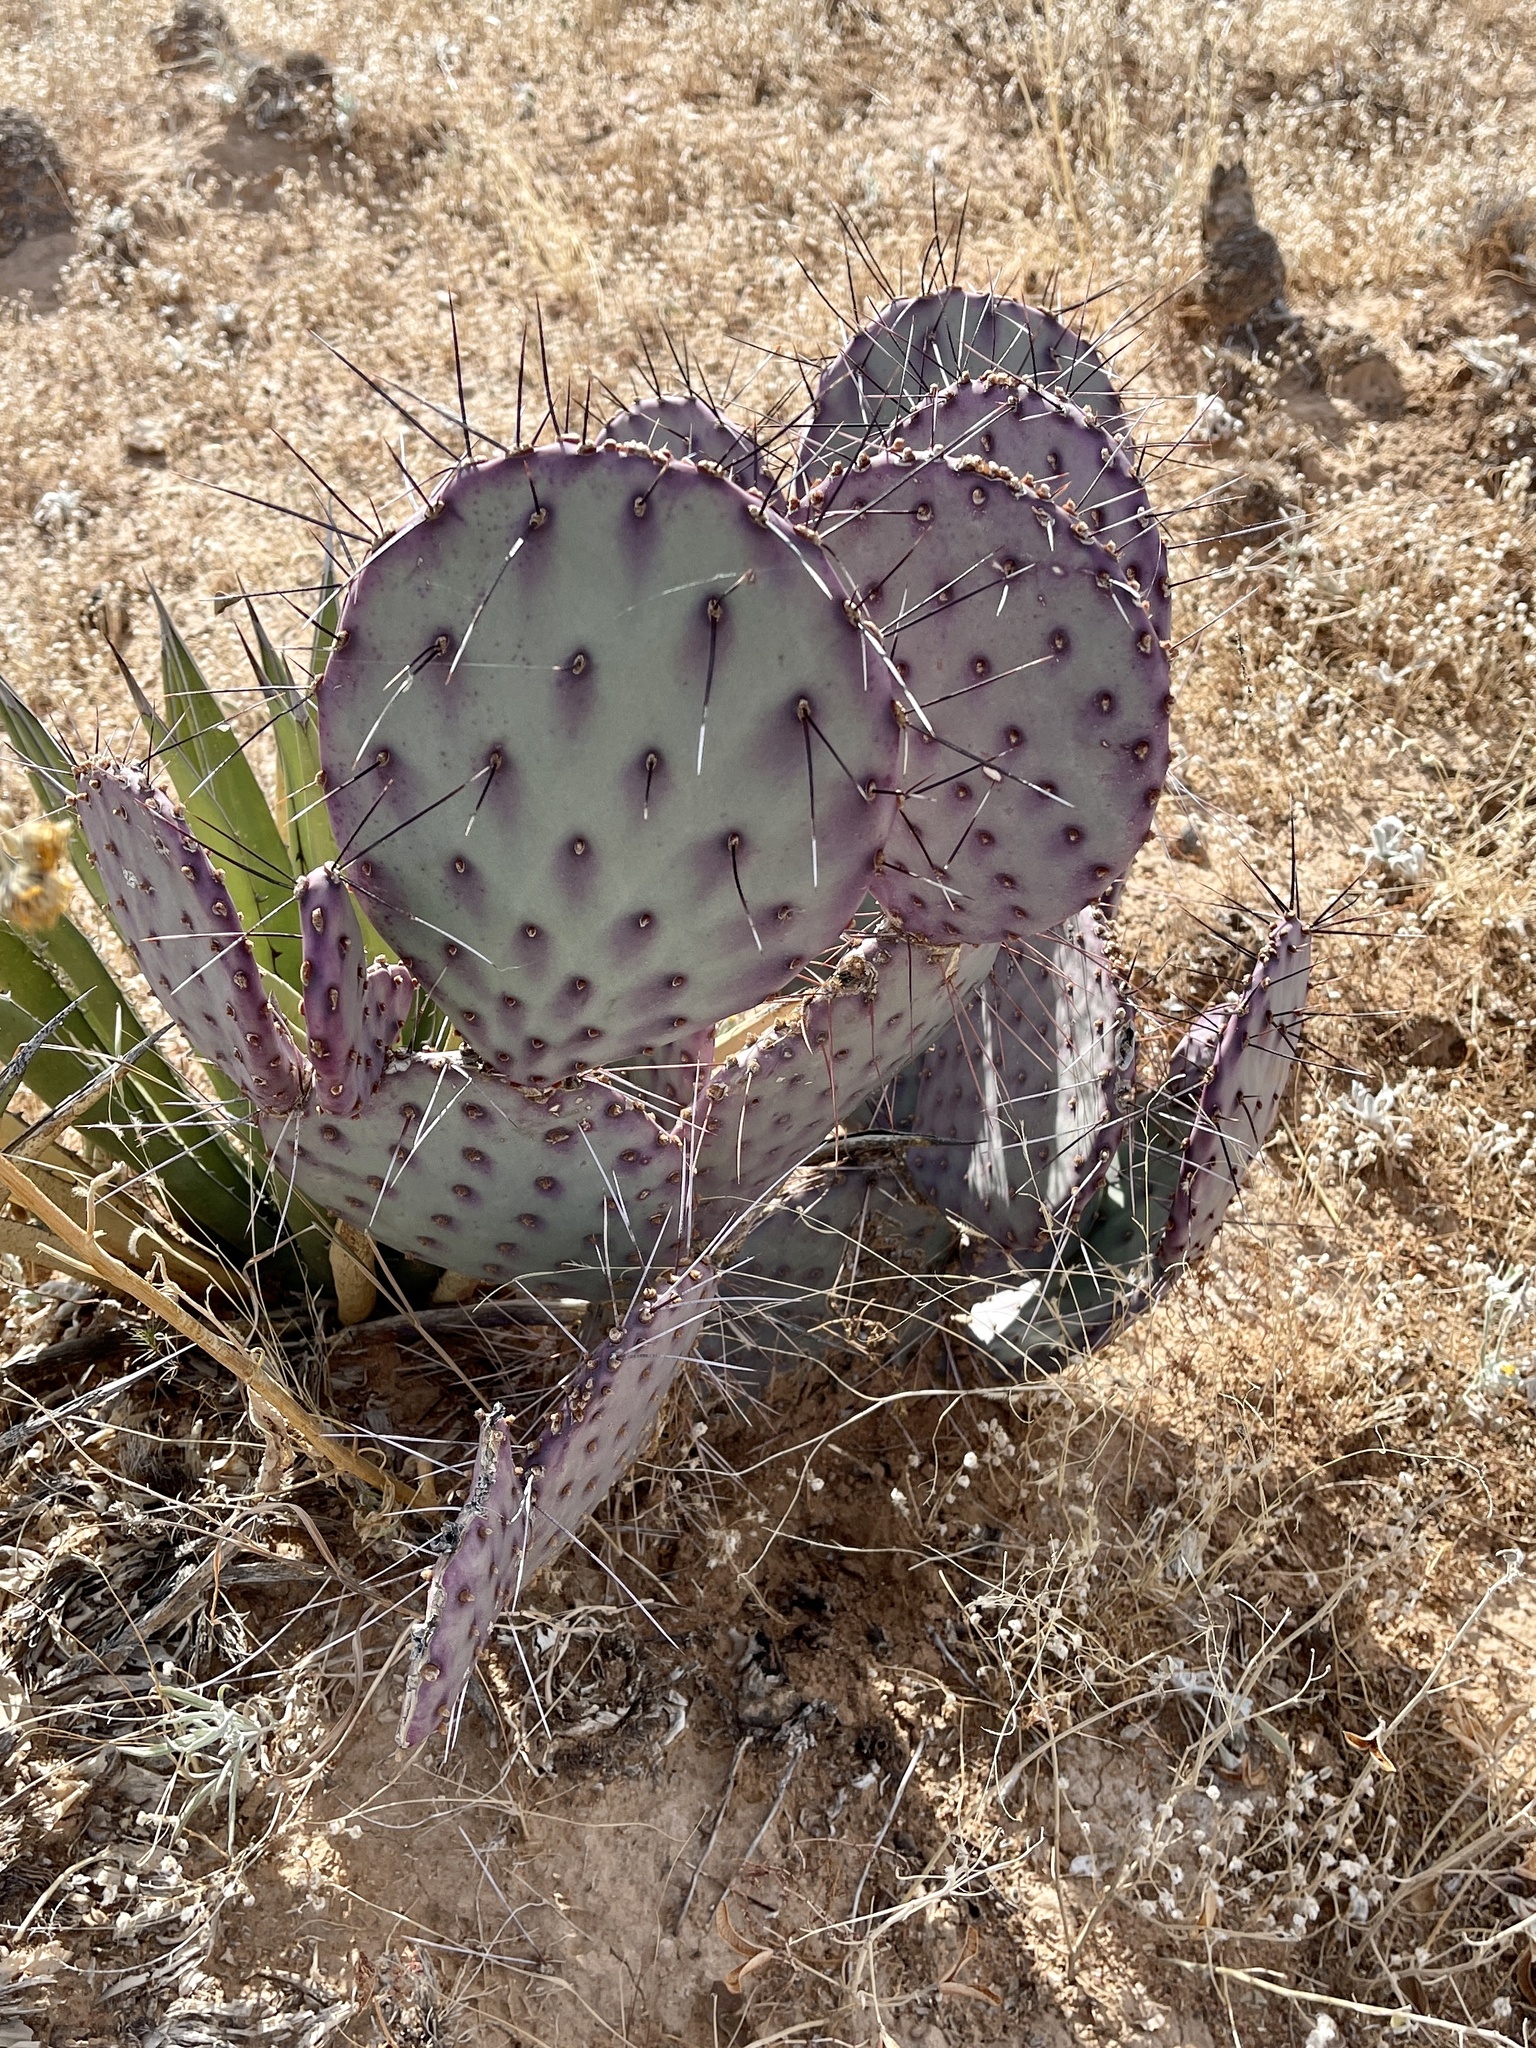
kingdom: Plantae
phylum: Tracheophyta
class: Magnoliopsida
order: Caryophyllales
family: Cactaceae
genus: Opuntia
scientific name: Opuntia macrocentra
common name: Purple prickly-pear
